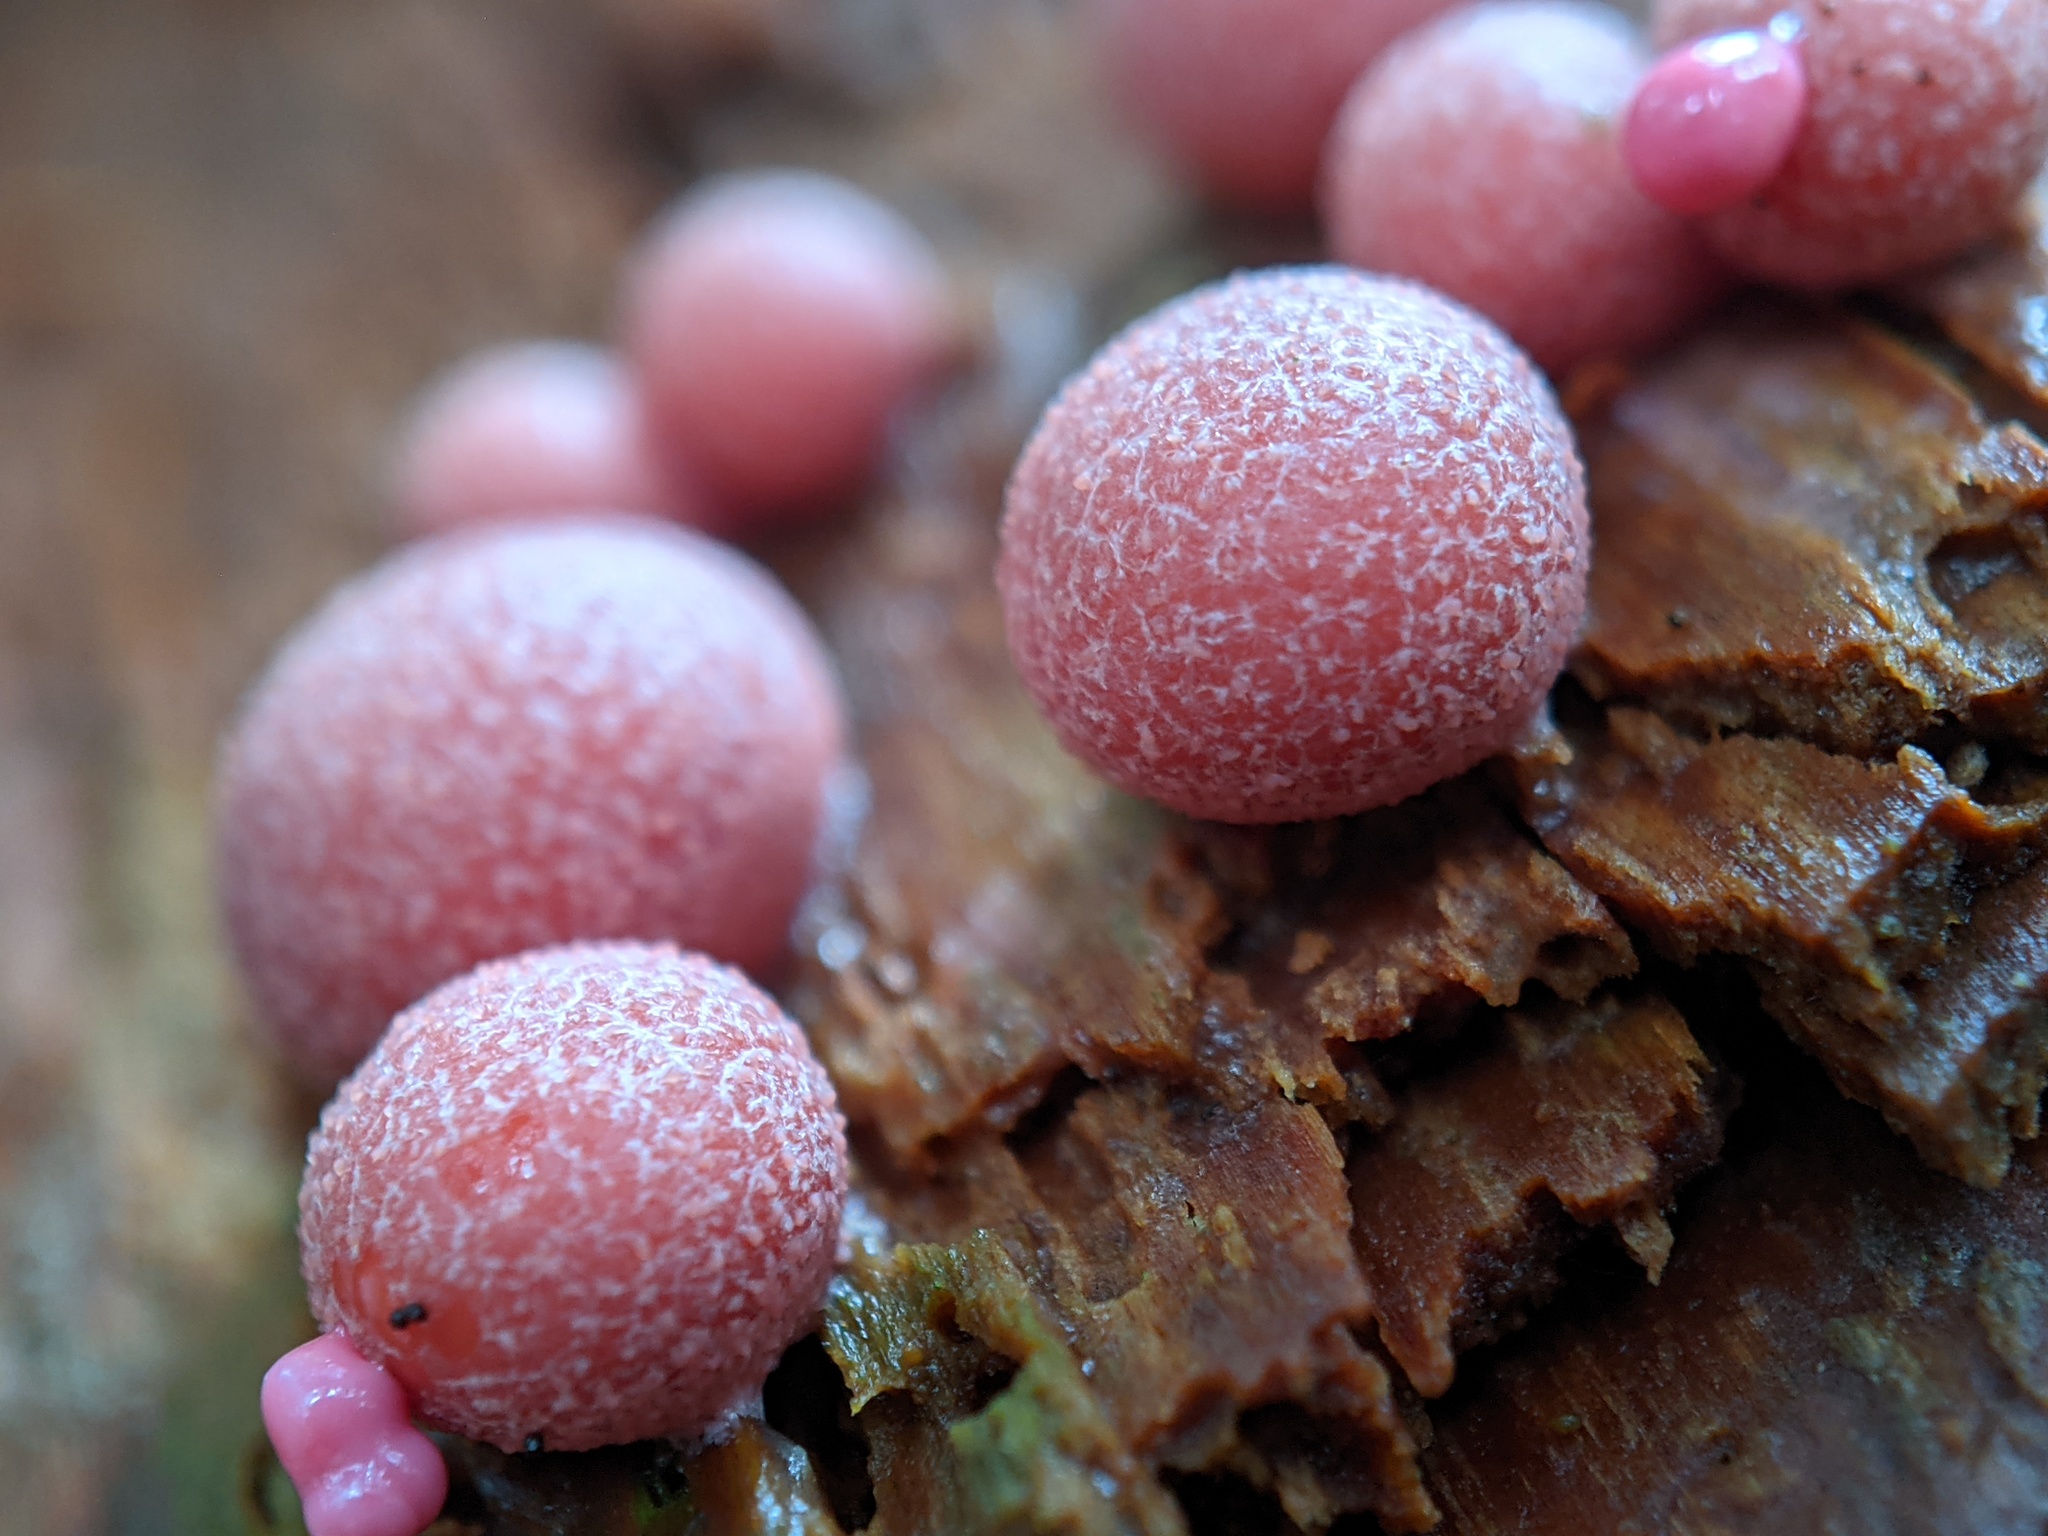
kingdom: Protozoa
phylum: Mycetozoa
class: Myxomycetes
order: Cribrariales
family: Tubiferaceae
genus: Lycogala
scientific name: Lycogala epidendrum
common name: Wolf's milk
